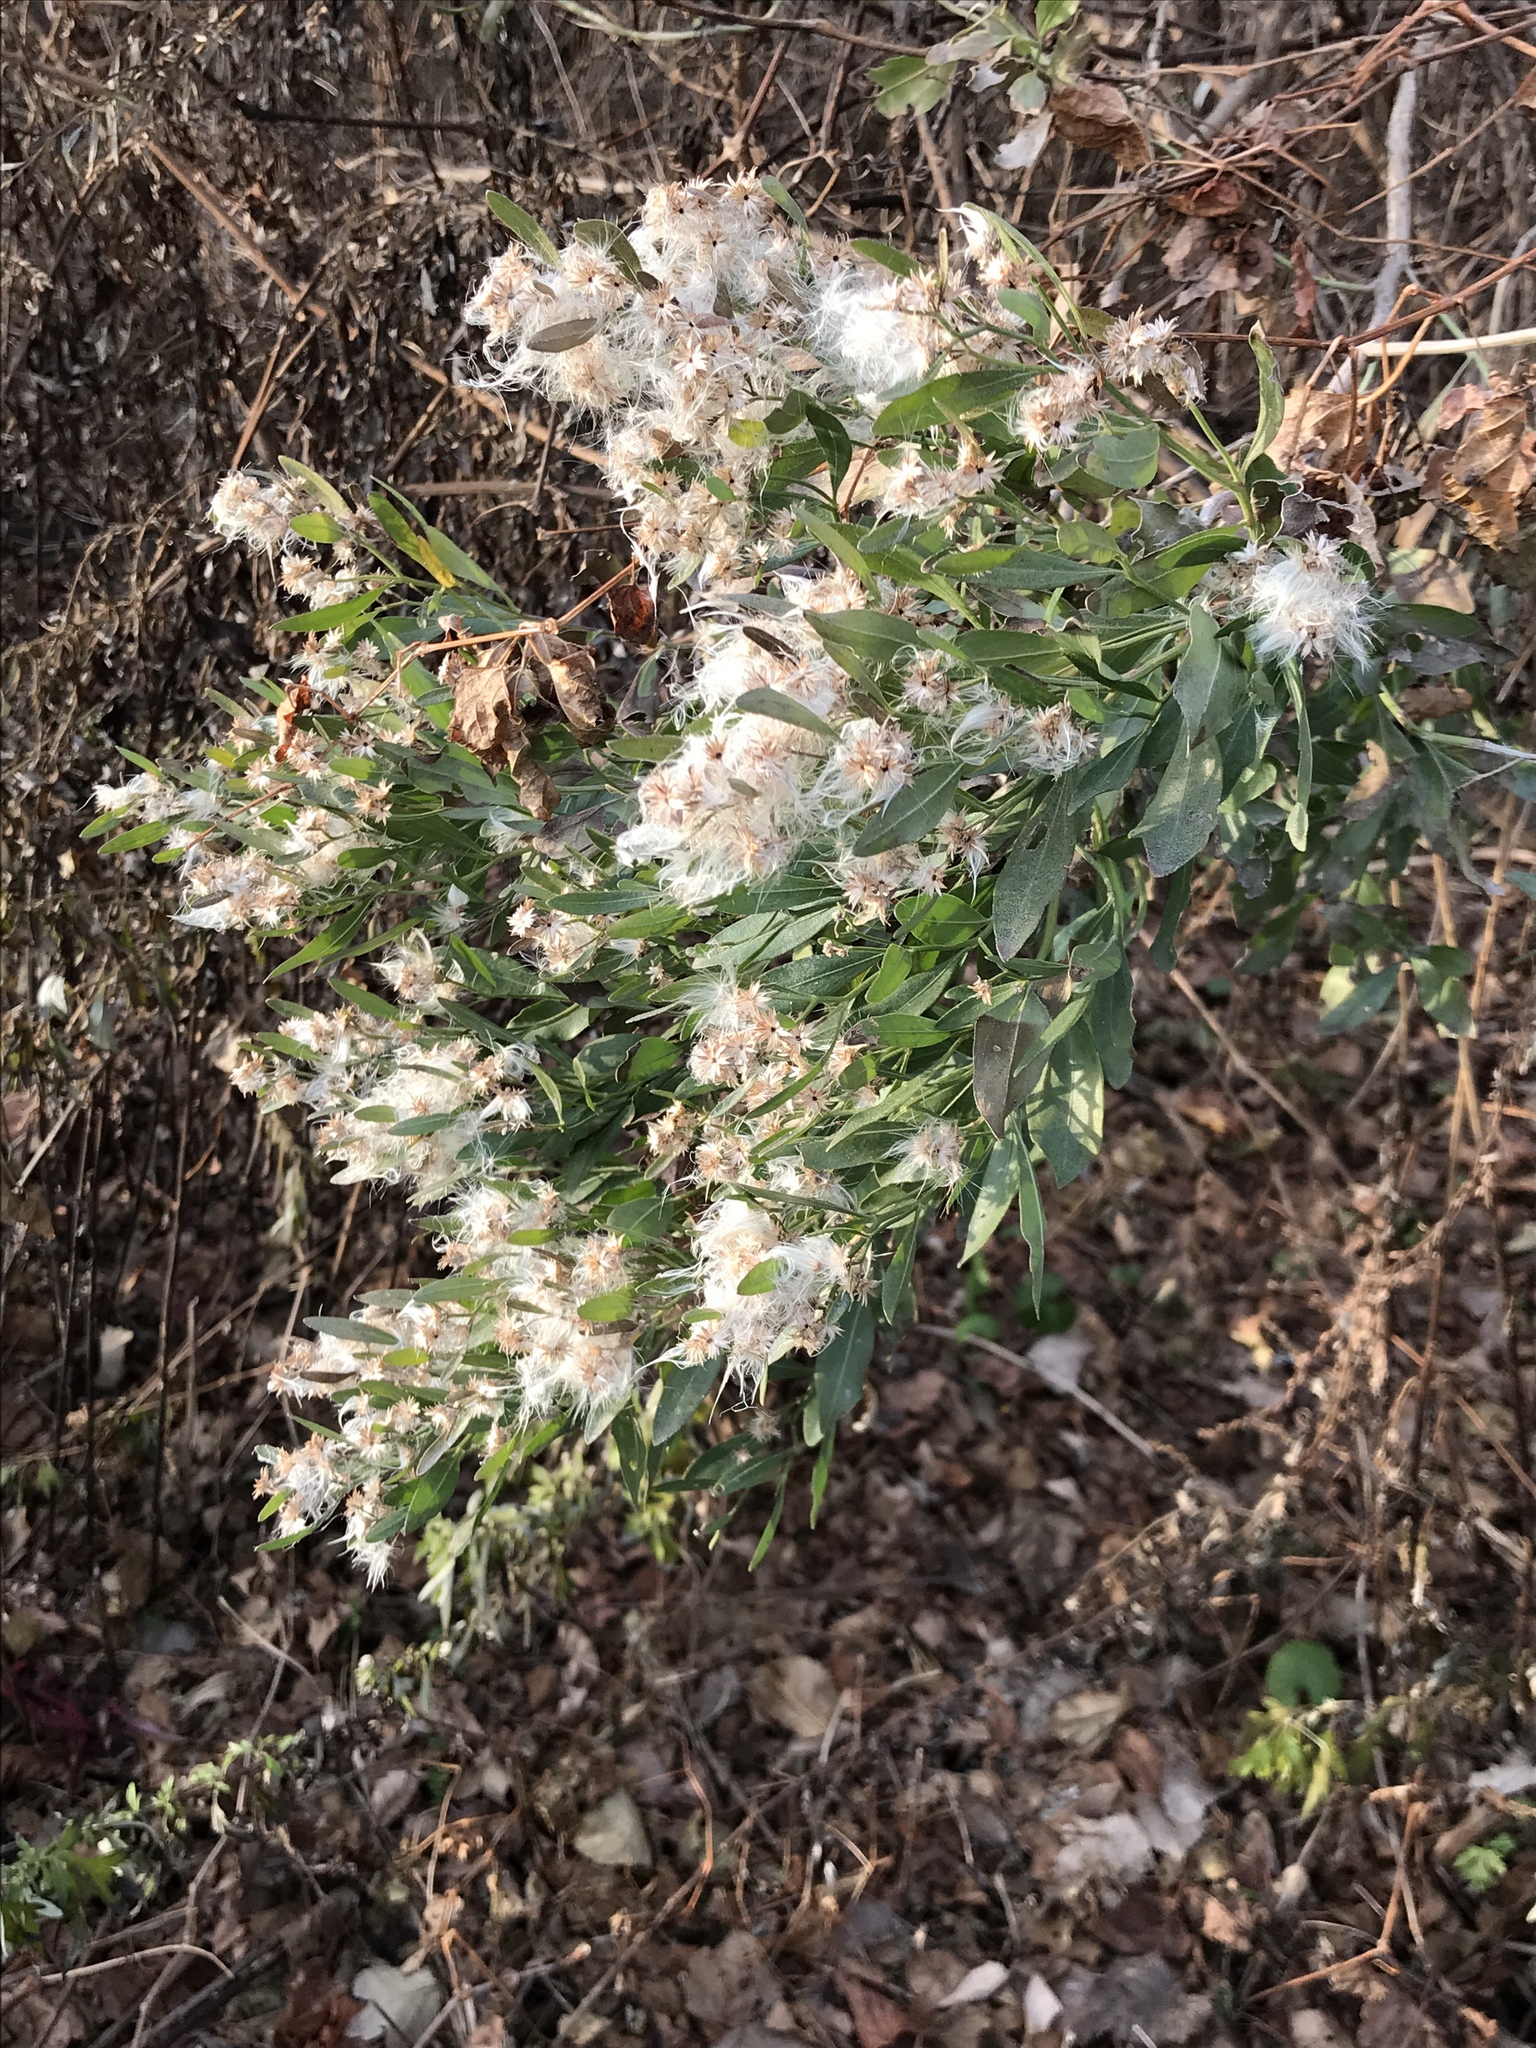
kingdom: Plantae
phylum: Tracheophyta
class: Magnoliopsida
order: Asterales
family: Asteraceae
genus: Baccharis
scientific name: Baccharis halimifolia
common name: Eastern baccharis
